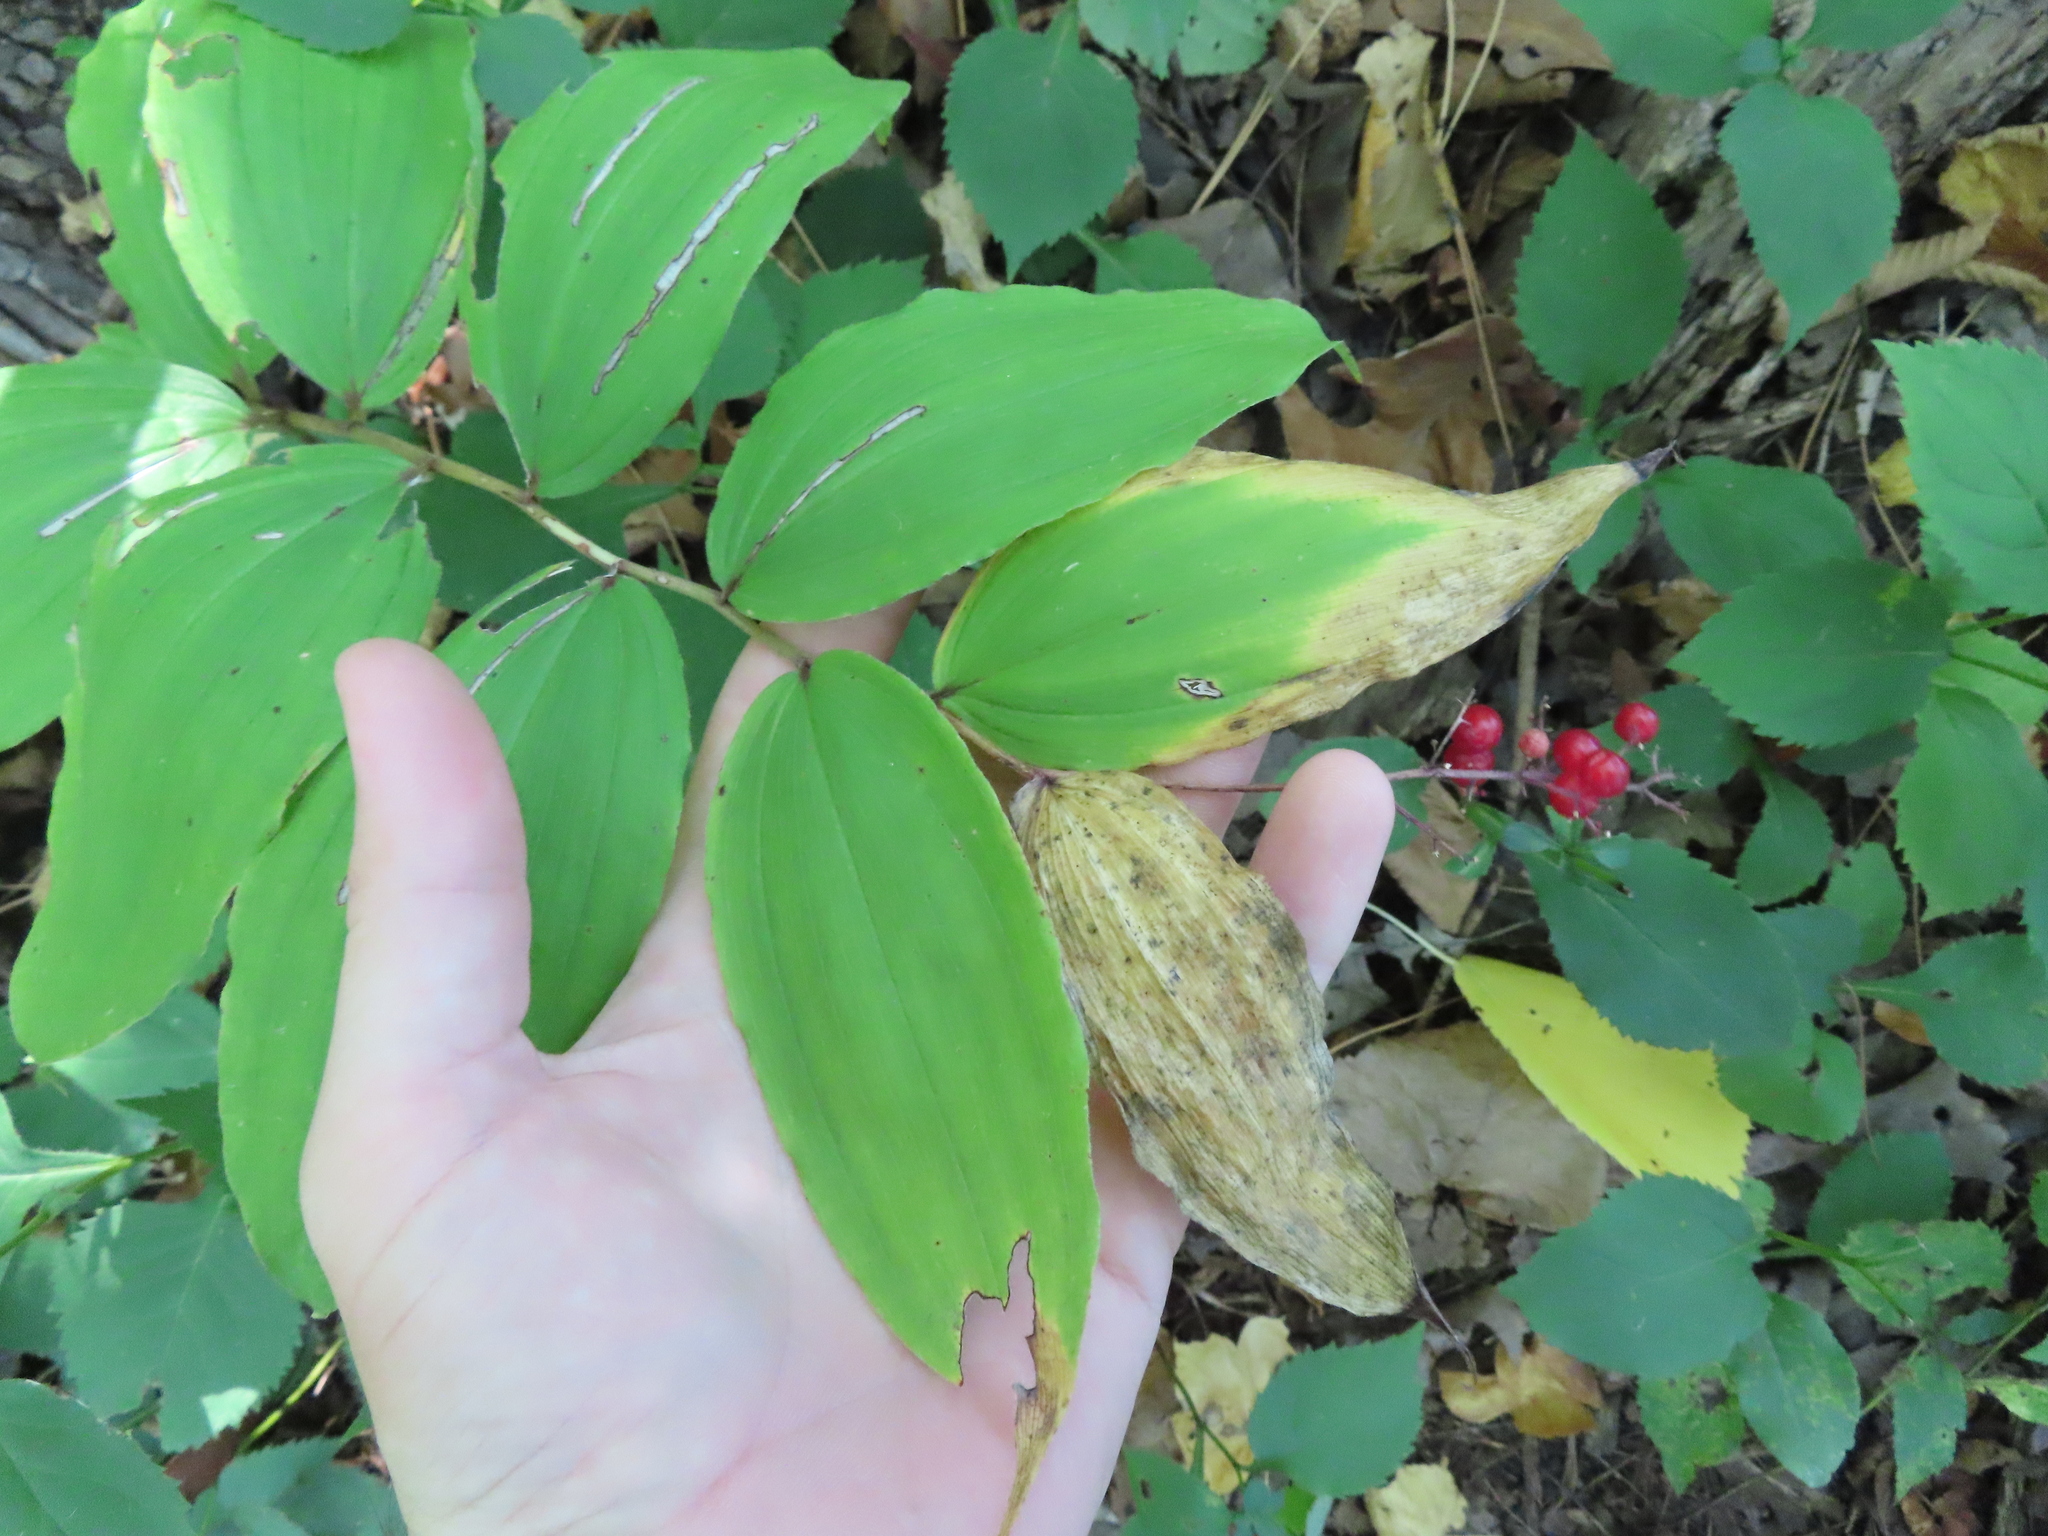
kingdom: Plantae
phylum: Tracheophyta
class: Liliopsida
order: Asparagales
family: Asparagaceae
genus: Maianthemum
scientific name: Maianthemum racemosum
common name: False spikenard
